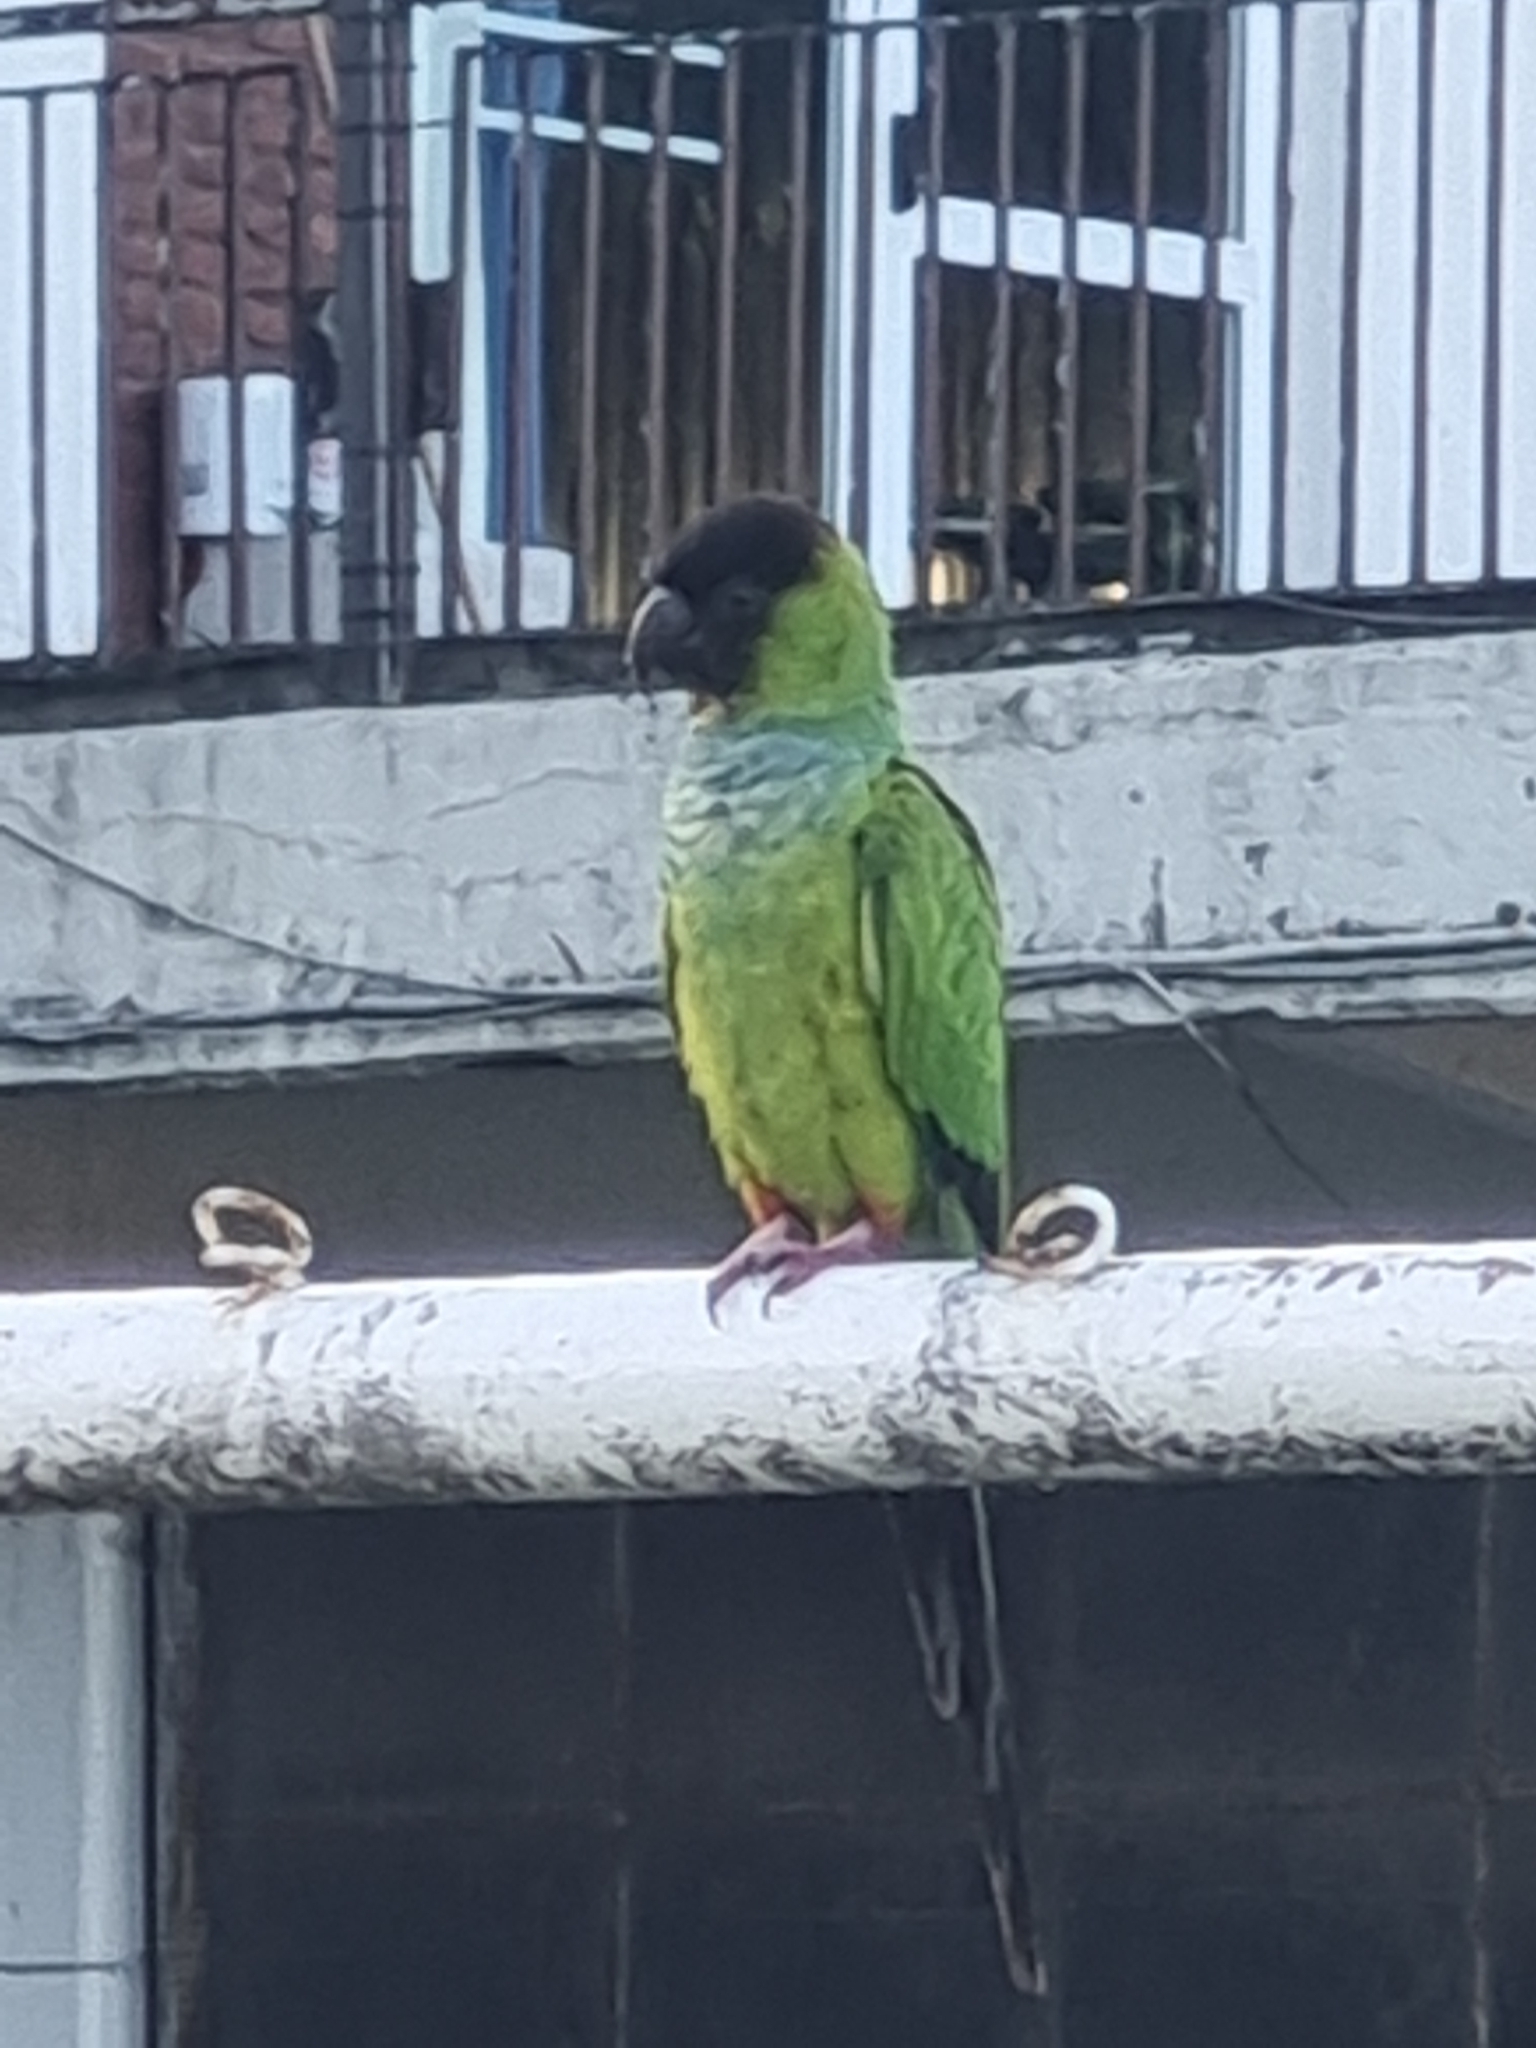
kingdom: Animalia
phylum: Chordata
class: Aves
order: Psittaciformes
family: Psittacidae
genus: Nandayus
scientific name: Nandayus nenday
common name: Nanday parakeet
